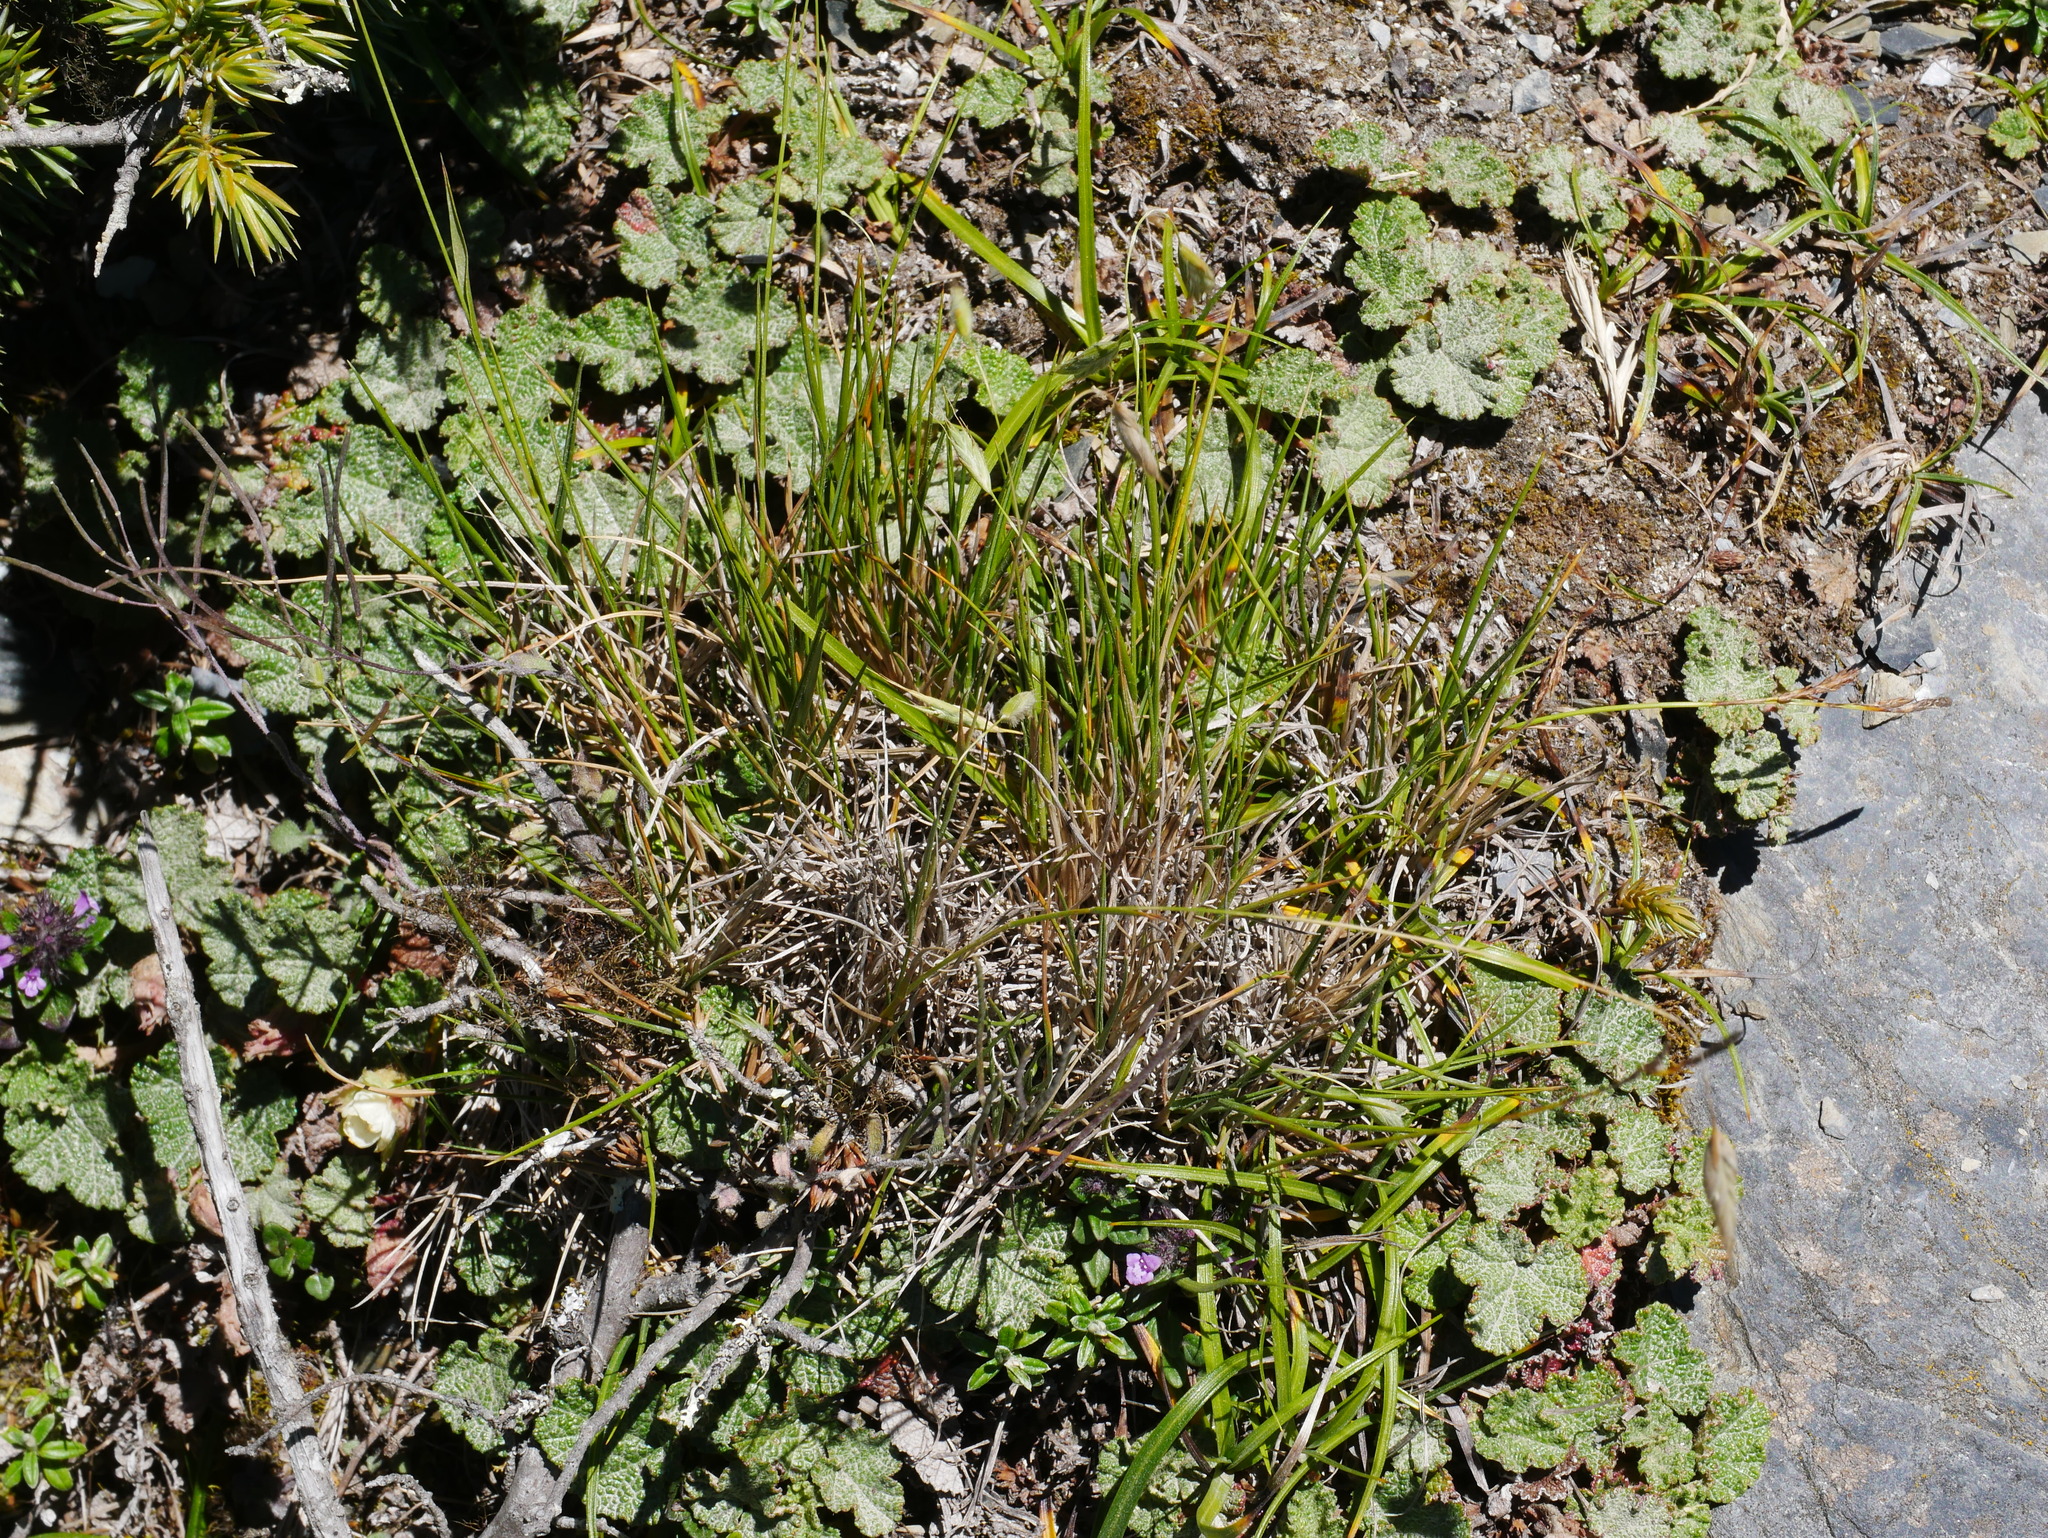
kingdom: Plantae
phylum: Tracheophyta
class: Liliopsida
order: Poales
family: Poaceae
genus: Brachypodium
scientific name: Brachypodium kawakamii
